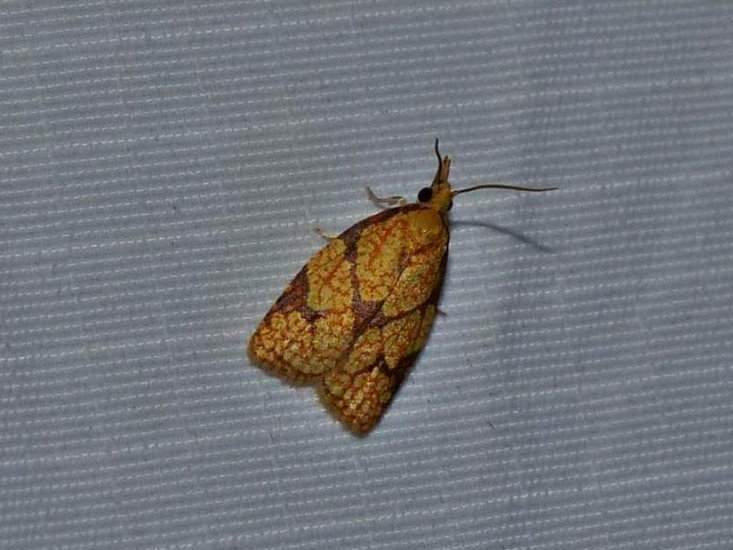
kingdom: Animalia
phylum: Arthropoda
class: Insecta
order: Lepidoptera
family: Tortricidae
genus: Cenopis
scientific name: Cenopis reticulatana
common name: Reticulated fruitworm moth
